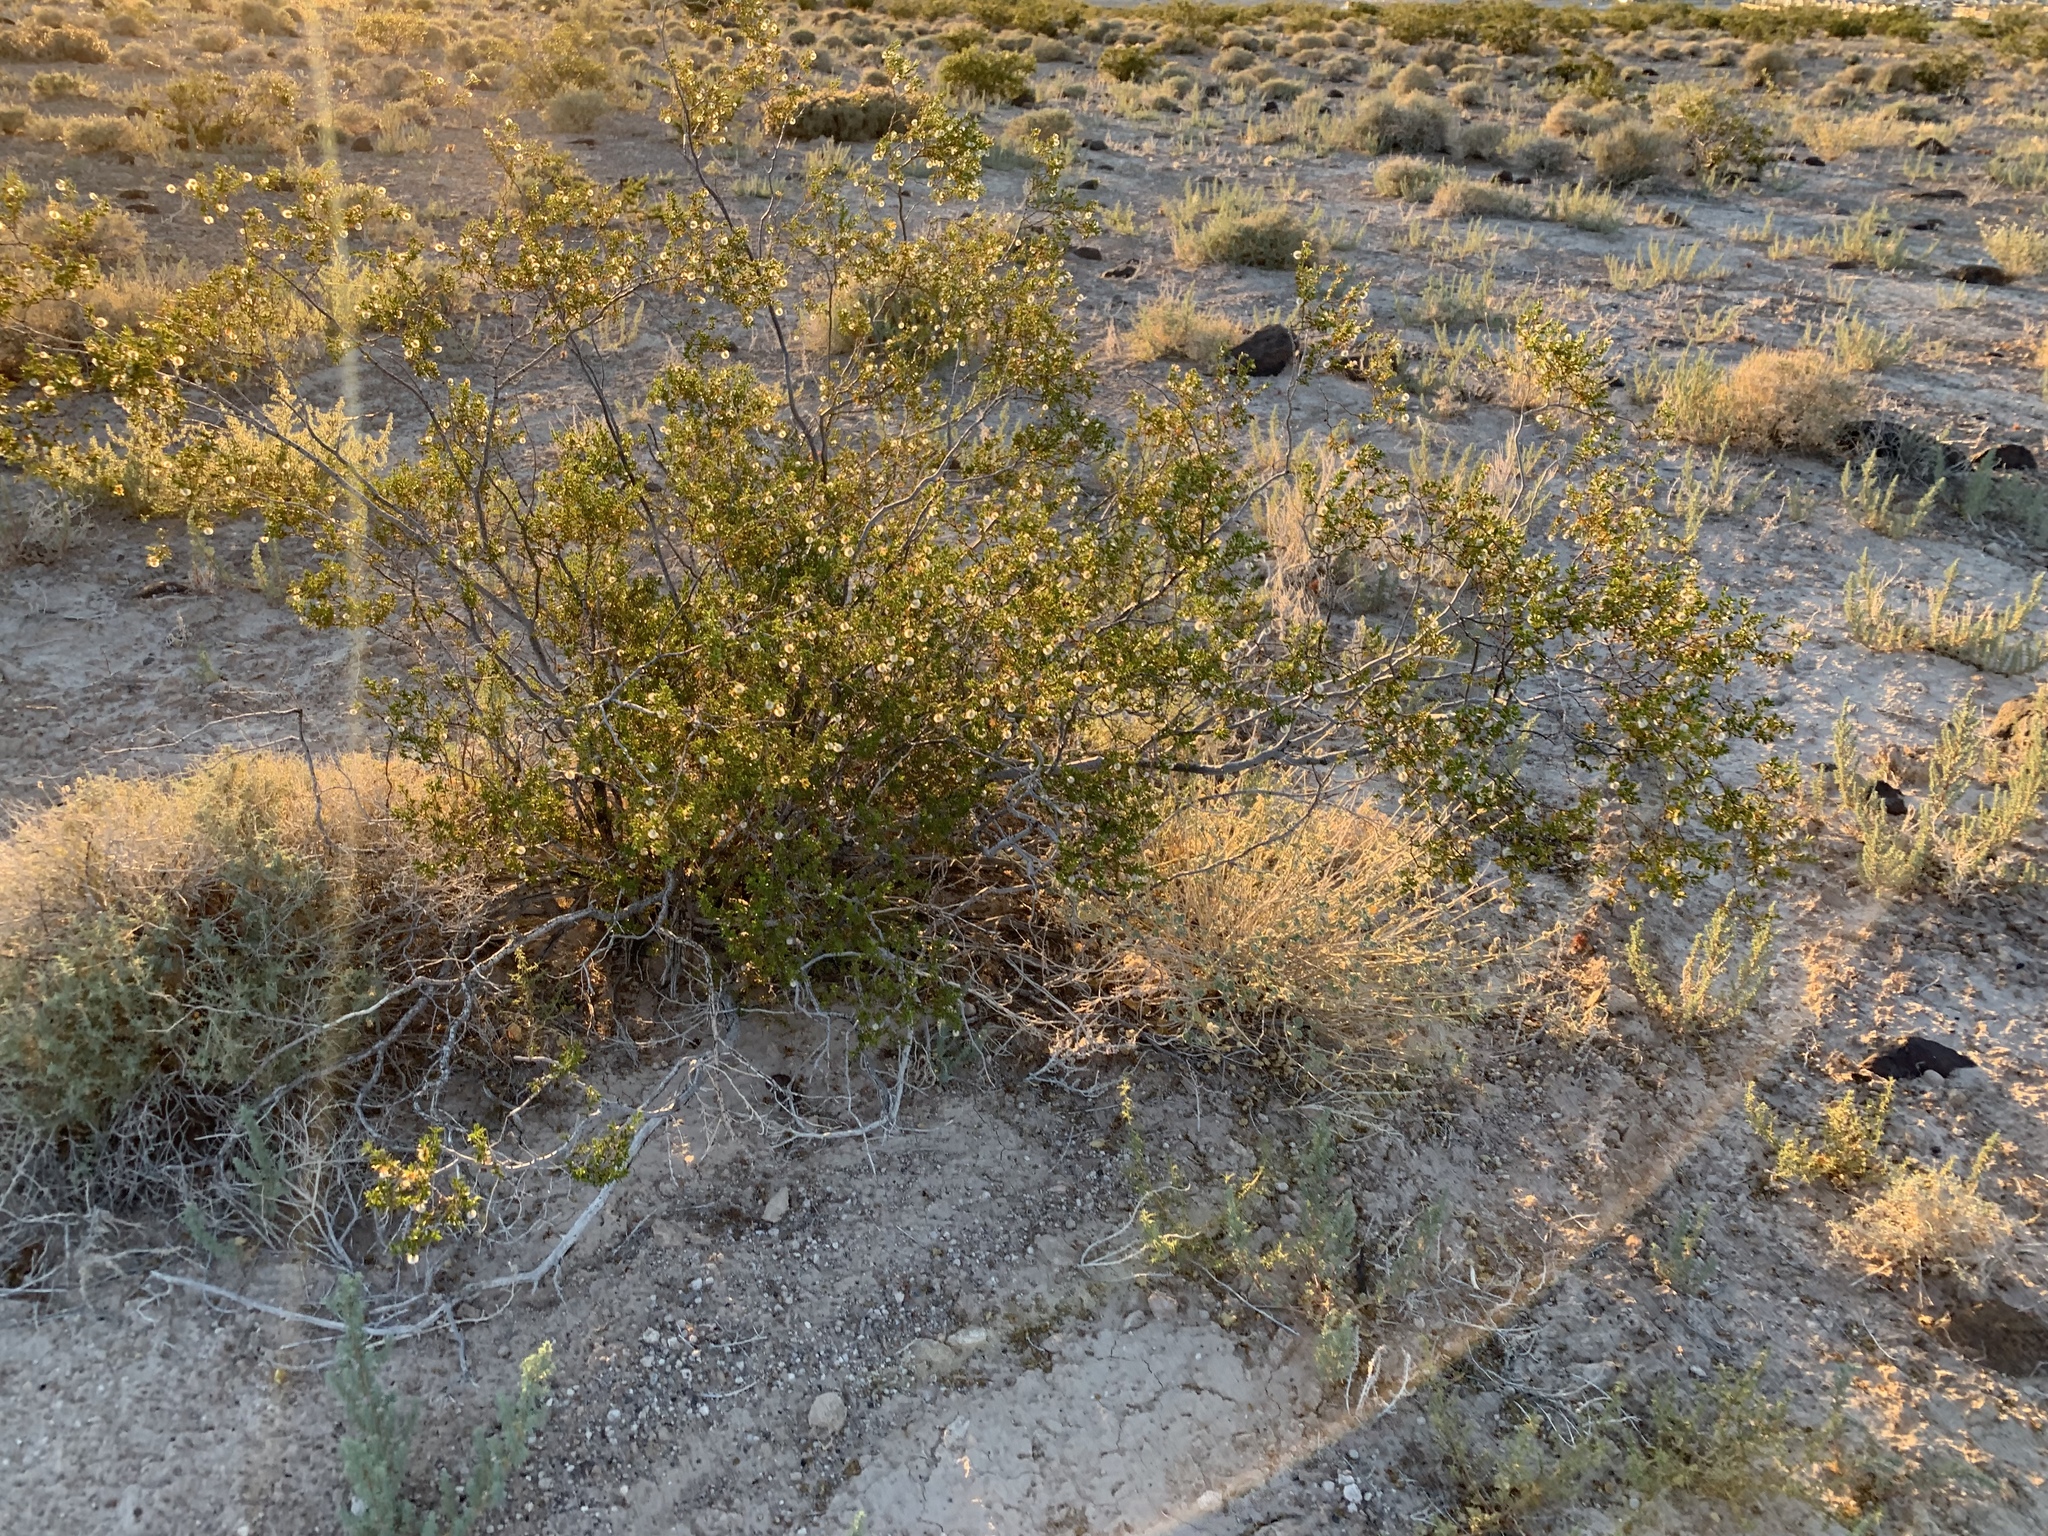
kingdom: Plantae
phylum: Tracheophyta
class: Magnoliopsida
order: Zygophyllales
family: Zygophyllaceae
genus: Larrea
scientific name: Larrea tridentata
